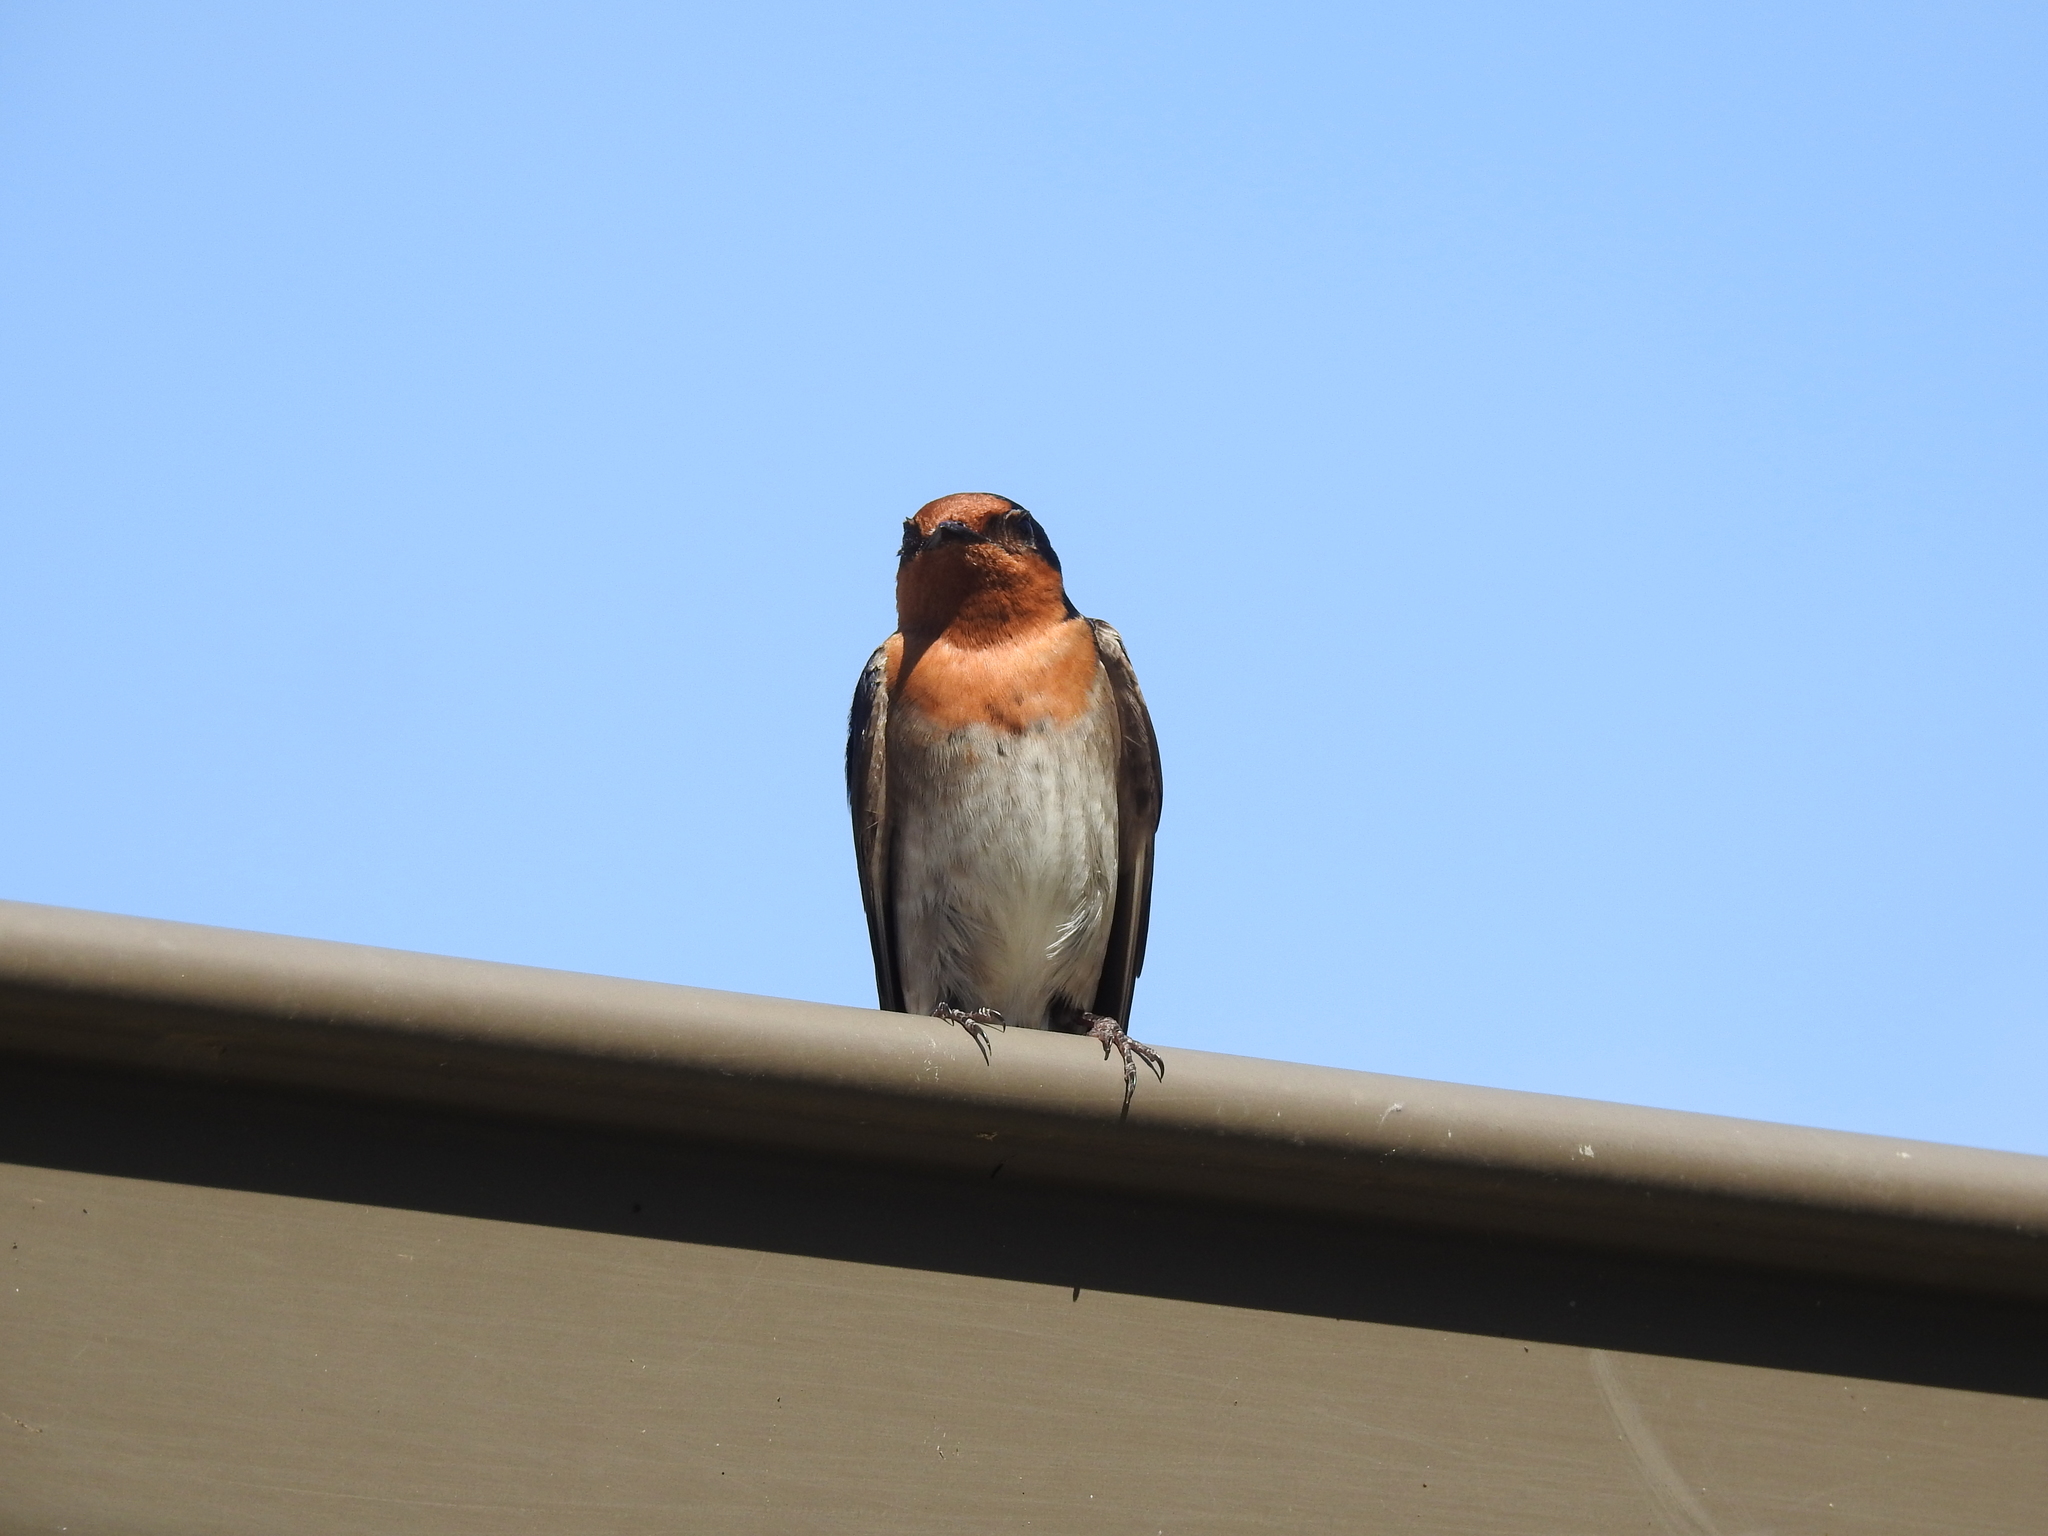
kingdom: Animalia
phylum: Chordata
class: Aves
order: Passeriformes
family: Hirundinidae
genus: Hirundo
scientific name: Hirundo neoxena
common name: Welcome swallow
